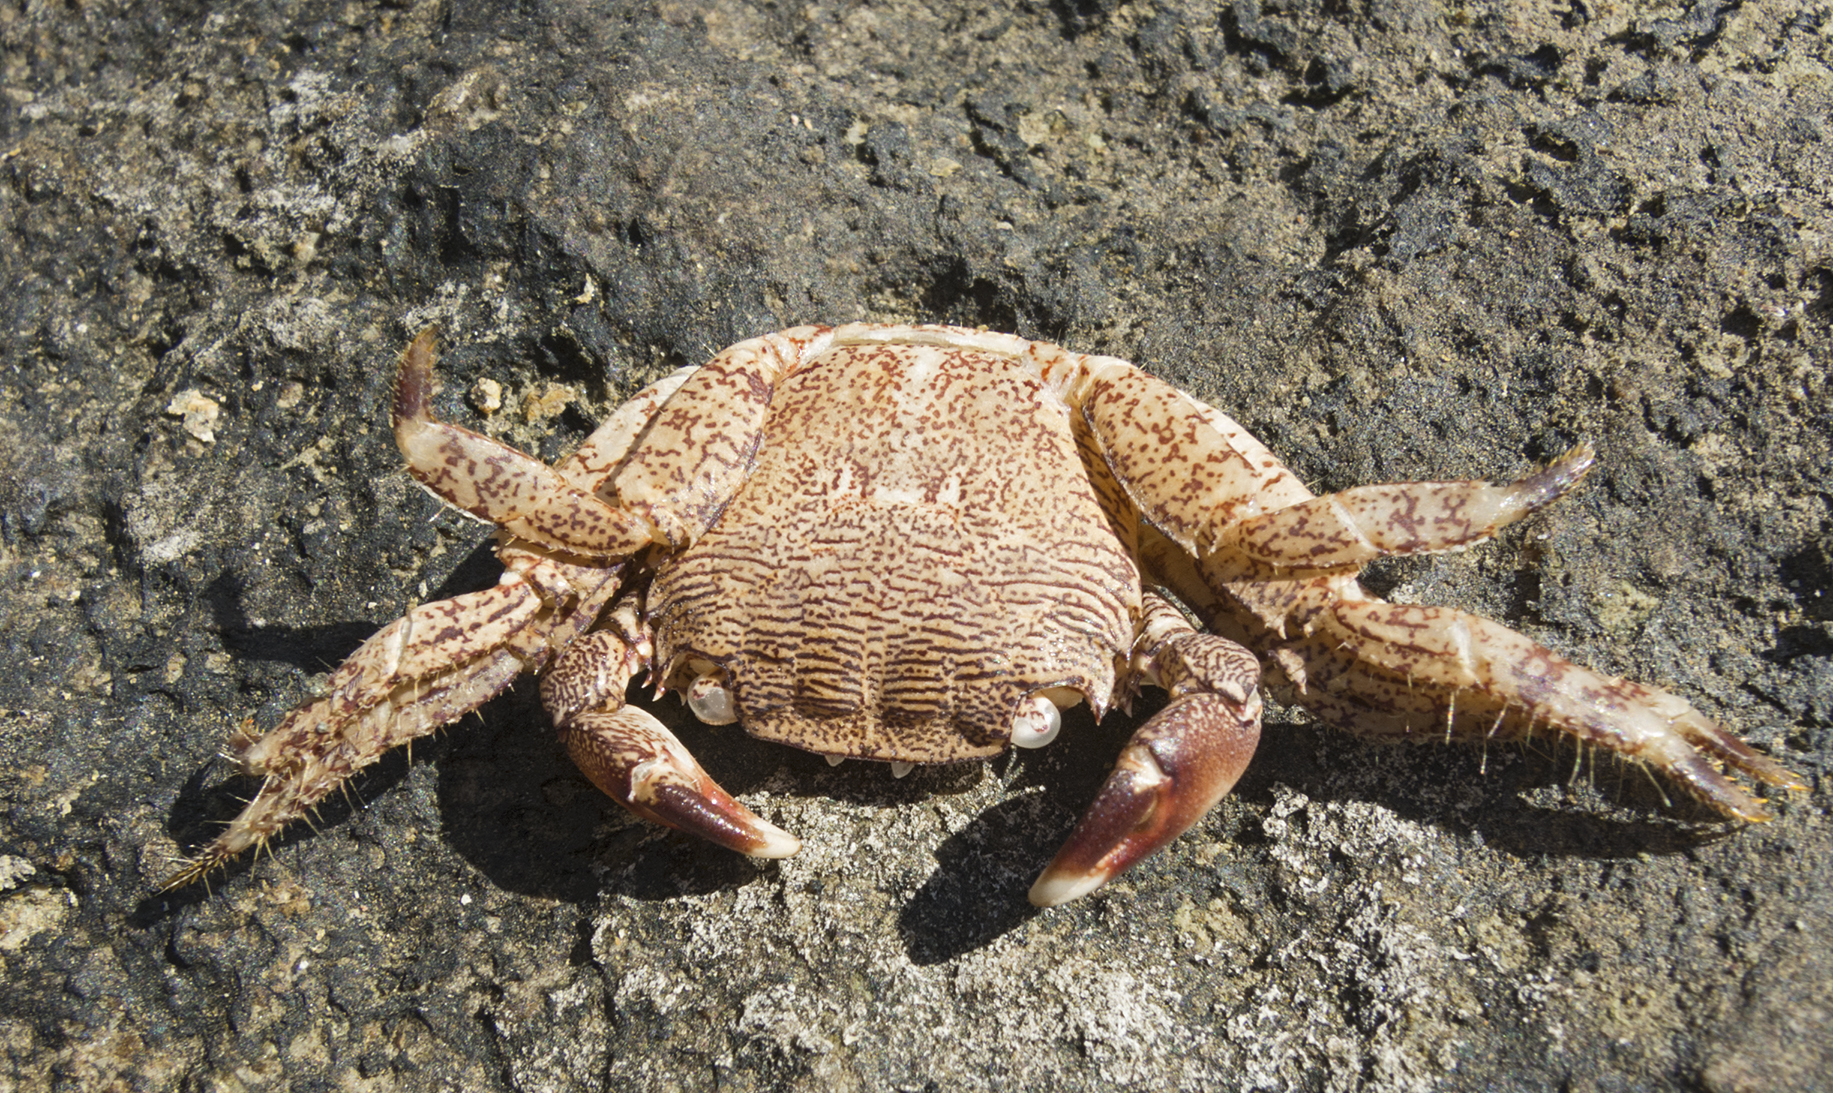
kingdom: Animalia
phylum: Arthropoda
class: Malacostraca
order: Decapoda
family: Grapsidae
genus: Pachygrapsus
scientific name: Pachygrapsus marmoratus
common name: Marbled rock crab
